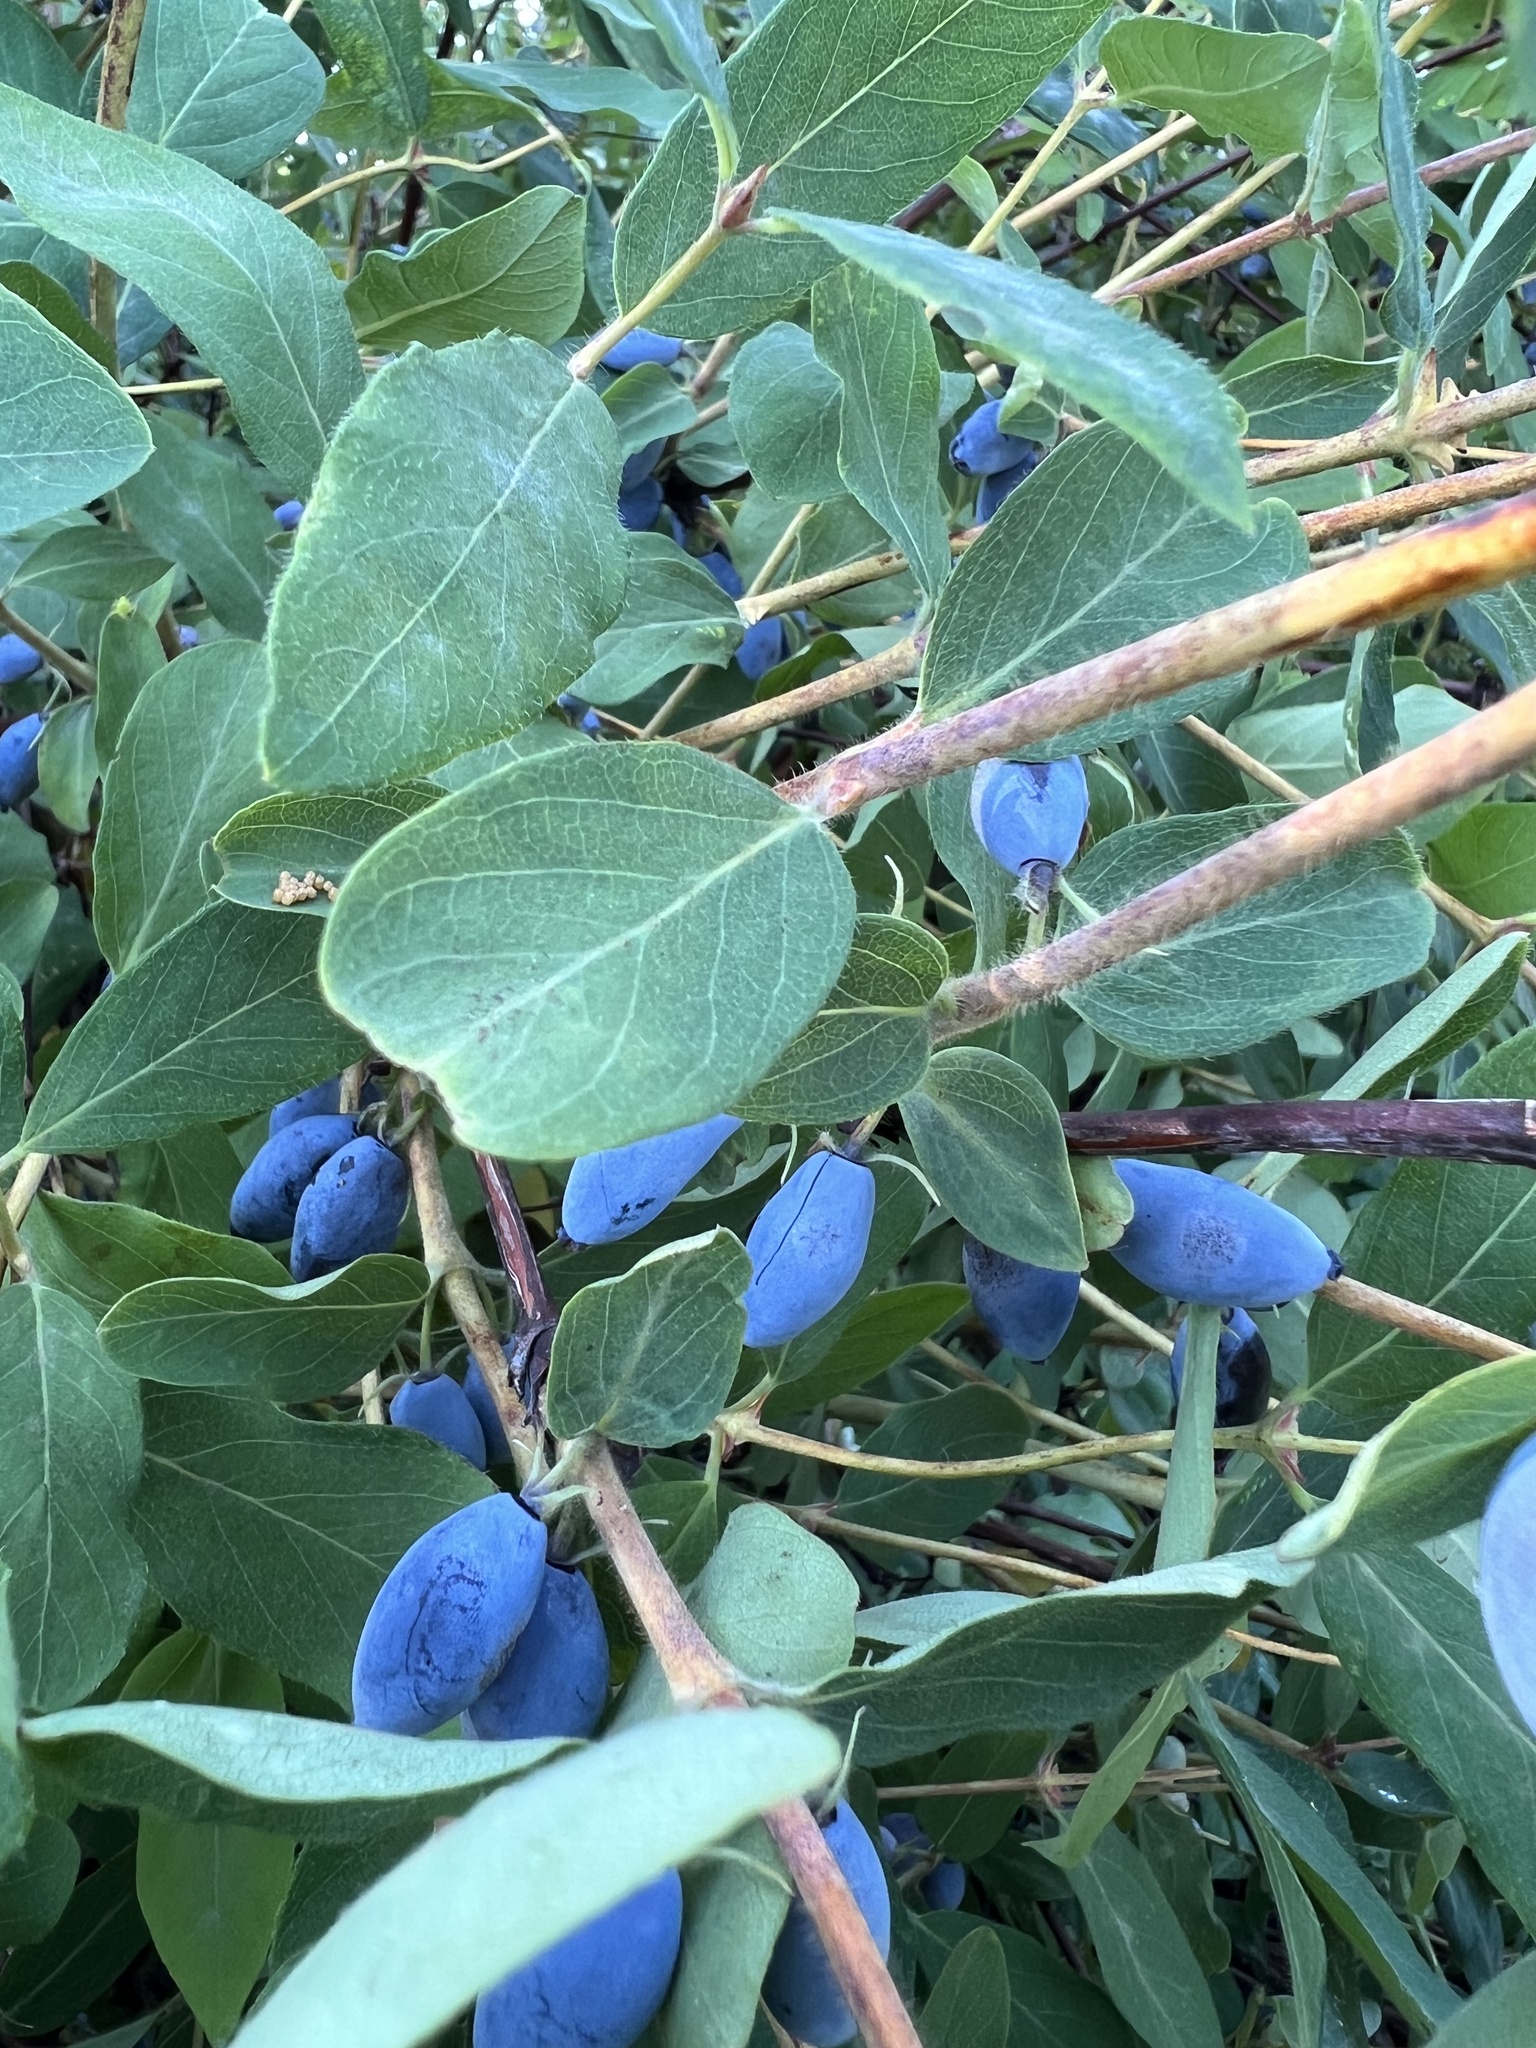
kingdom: Plantae
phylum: Tracheophyta
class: Magnoliopsida
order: Dipsacales
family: Caprifoliaceae
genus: Lonicera
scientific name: Lonicera caerulea
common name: Blue honeysuckle
